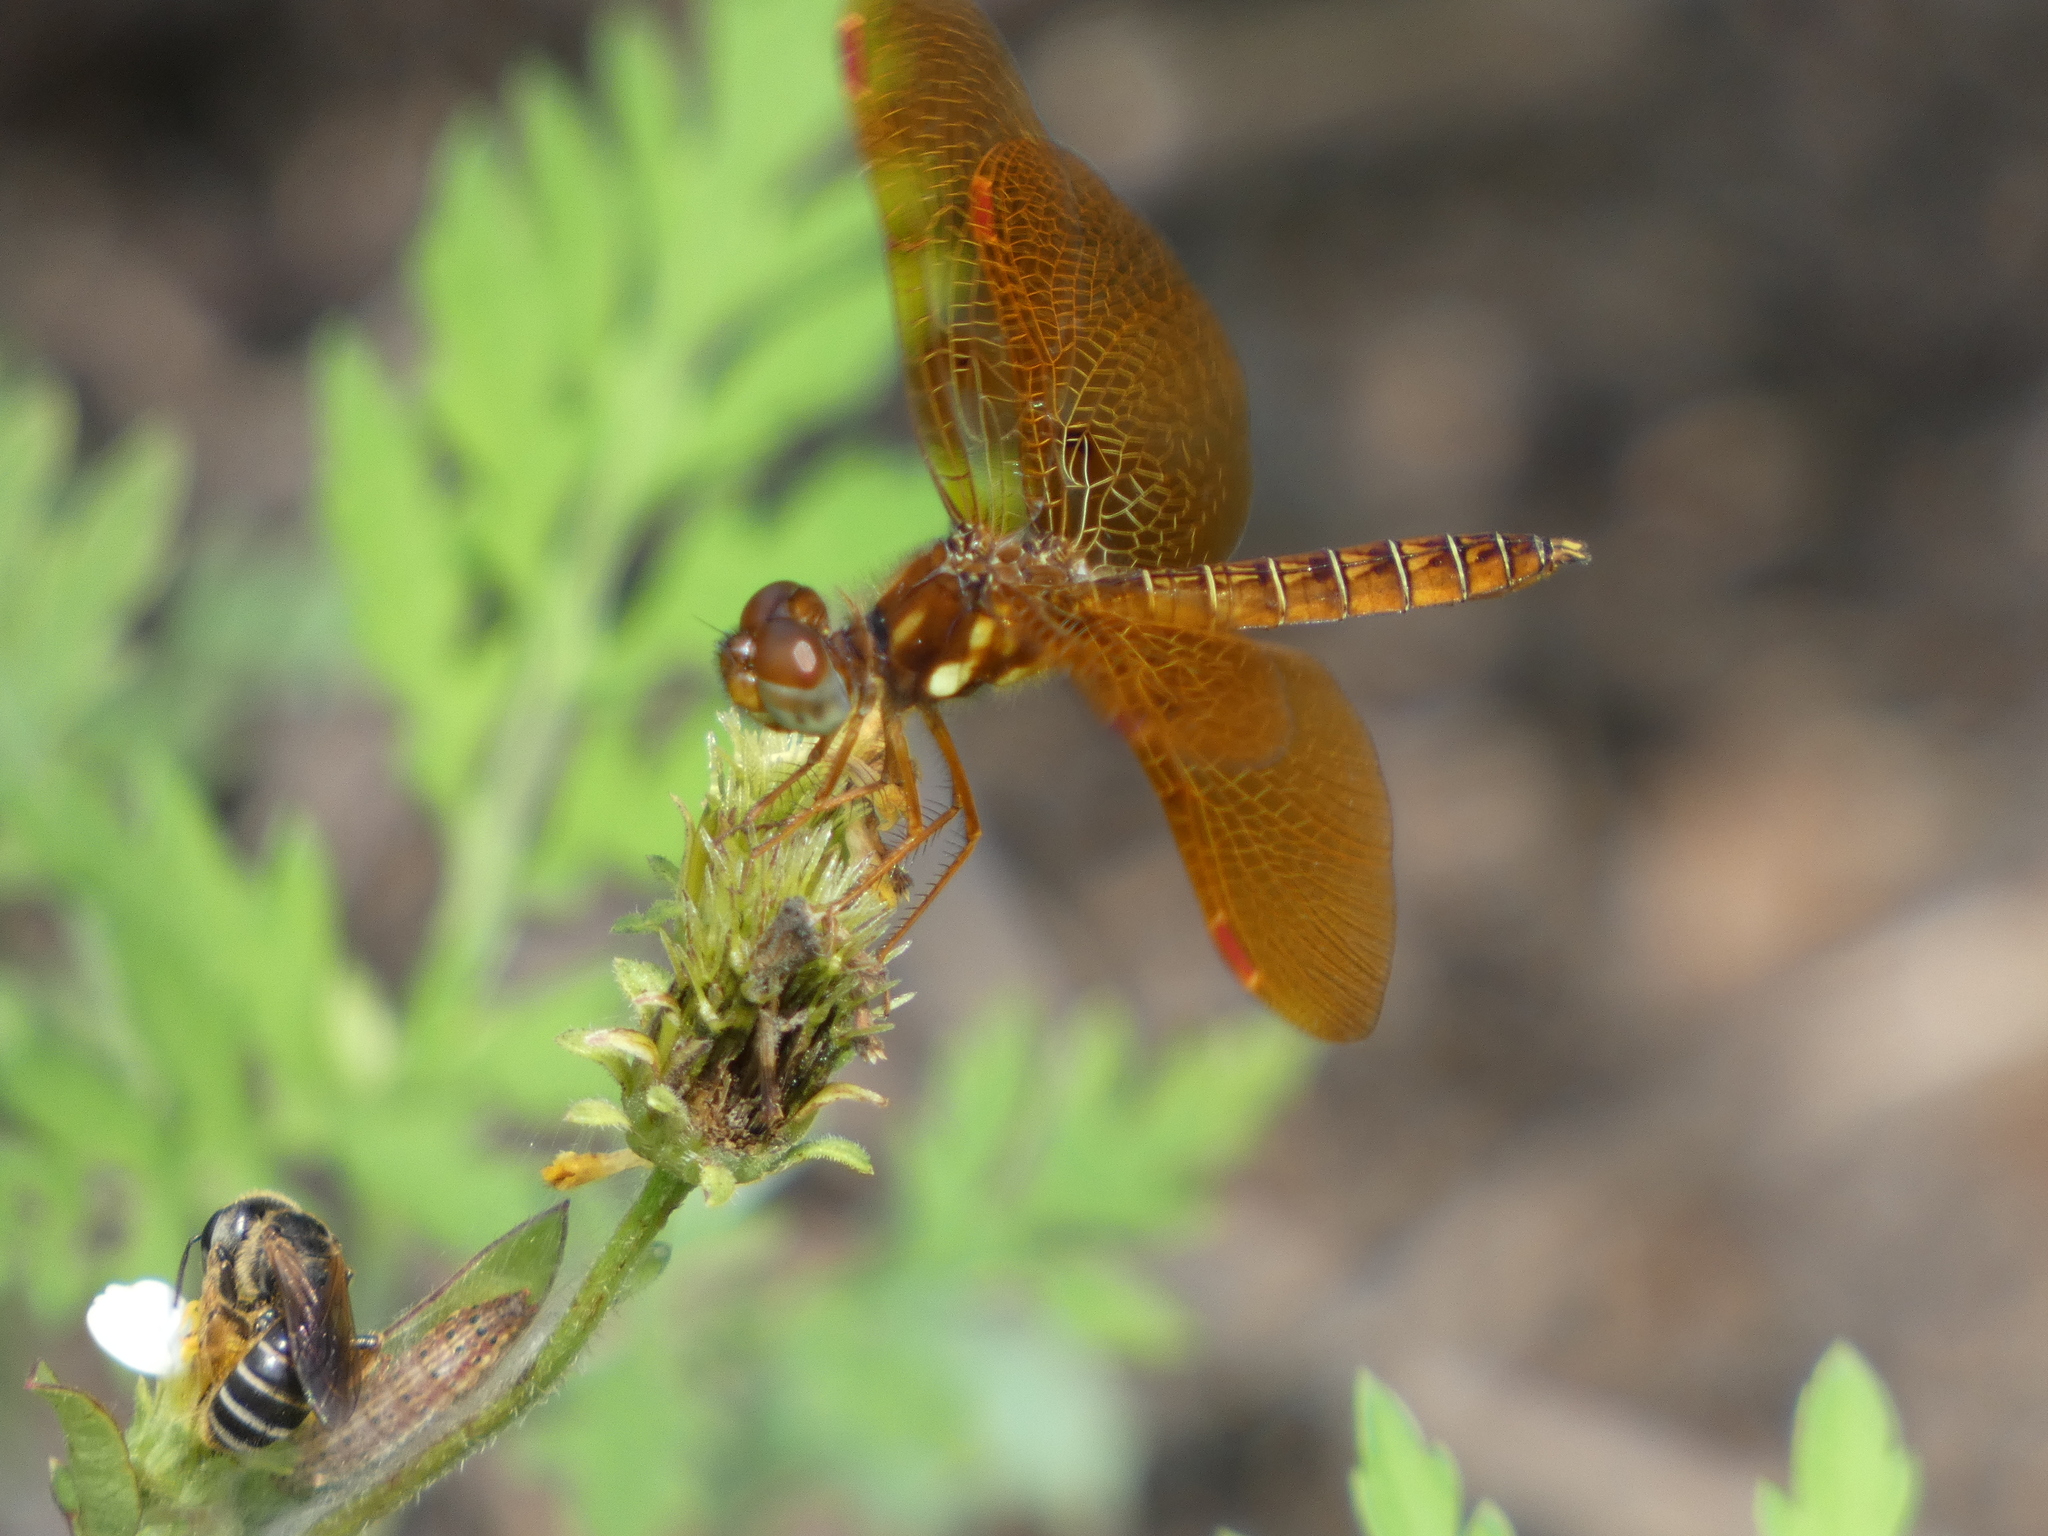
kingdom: Animalia
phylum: Arthropoda
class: Insecta
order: Odonata
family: Libellulidae
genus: Perithemis
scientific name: Perithemis tenera
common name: Eastern amberwing
